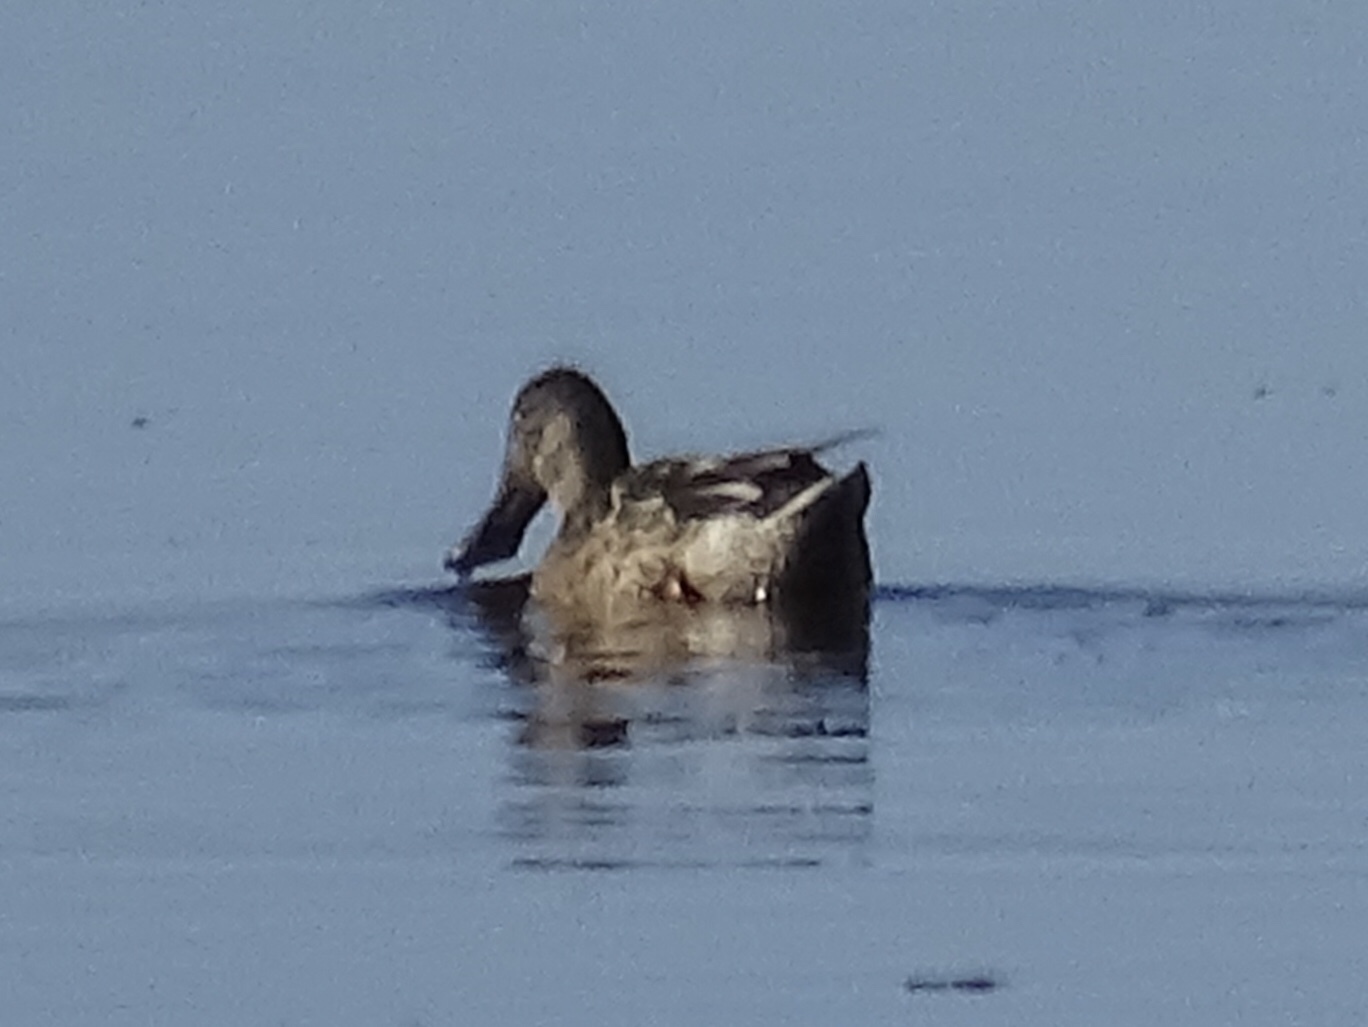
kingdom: Animalia
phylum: Chordata
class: Aves
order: Anseriformes
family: Anatidae
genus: Spatula
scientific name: Spatula clypeata
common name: Northern shoveler
